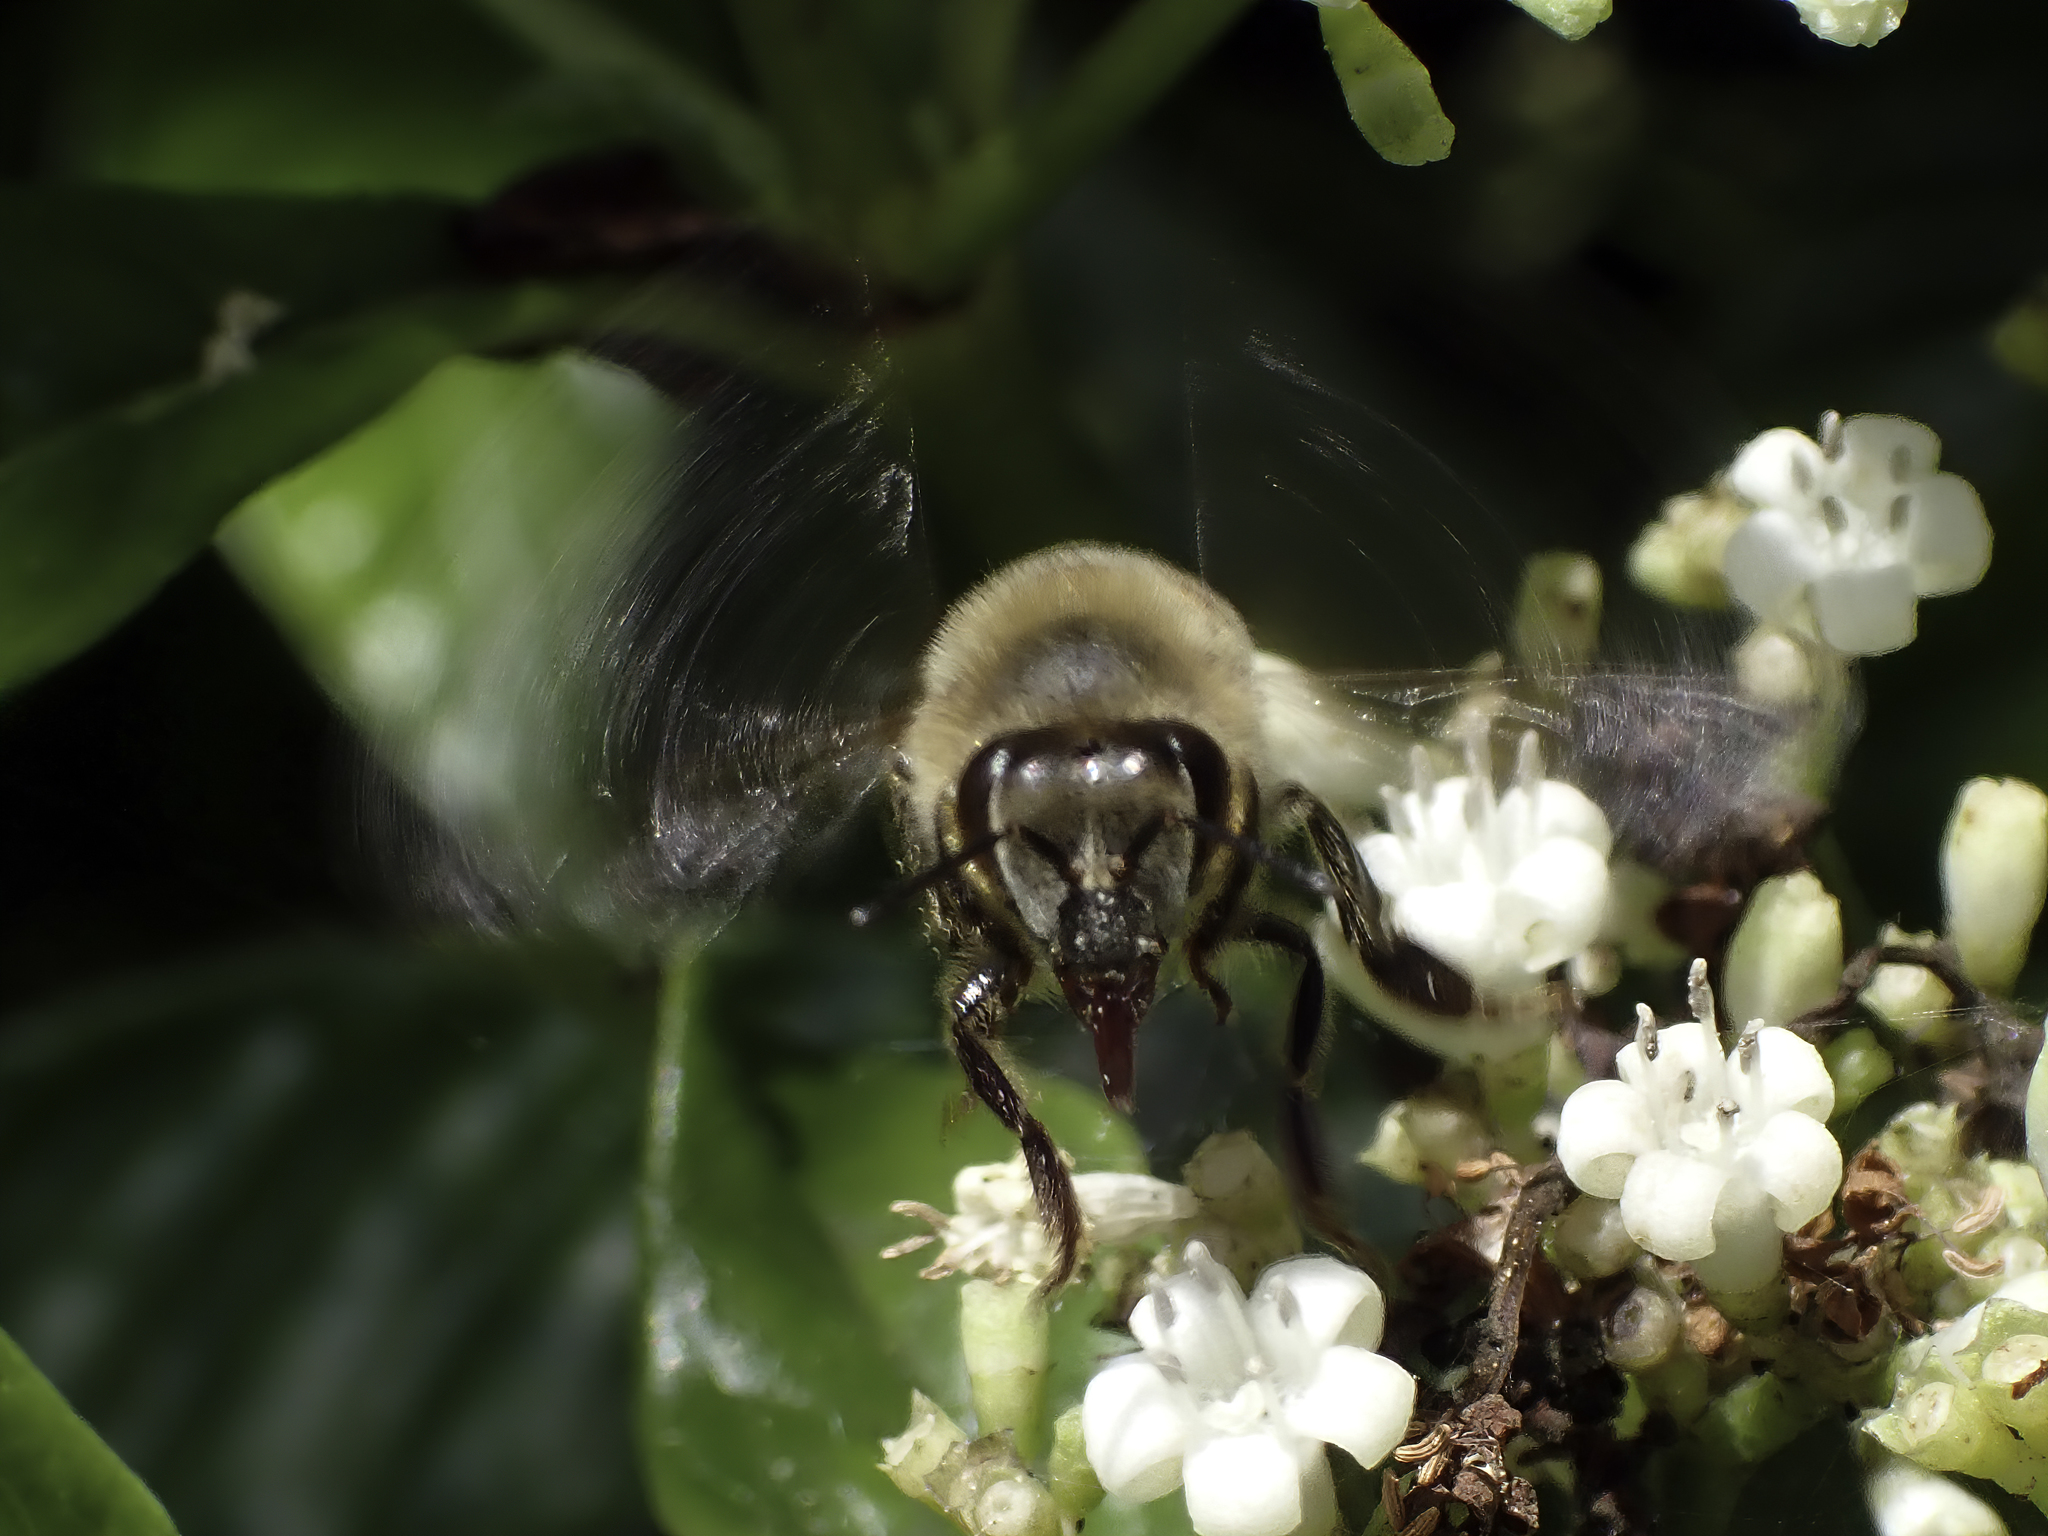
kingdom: Animalia
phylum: Arthropoda
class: Insecta
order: Hymenoptera
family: Apidae
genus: Apis
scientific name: Apis mellifera
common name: Honey bee
